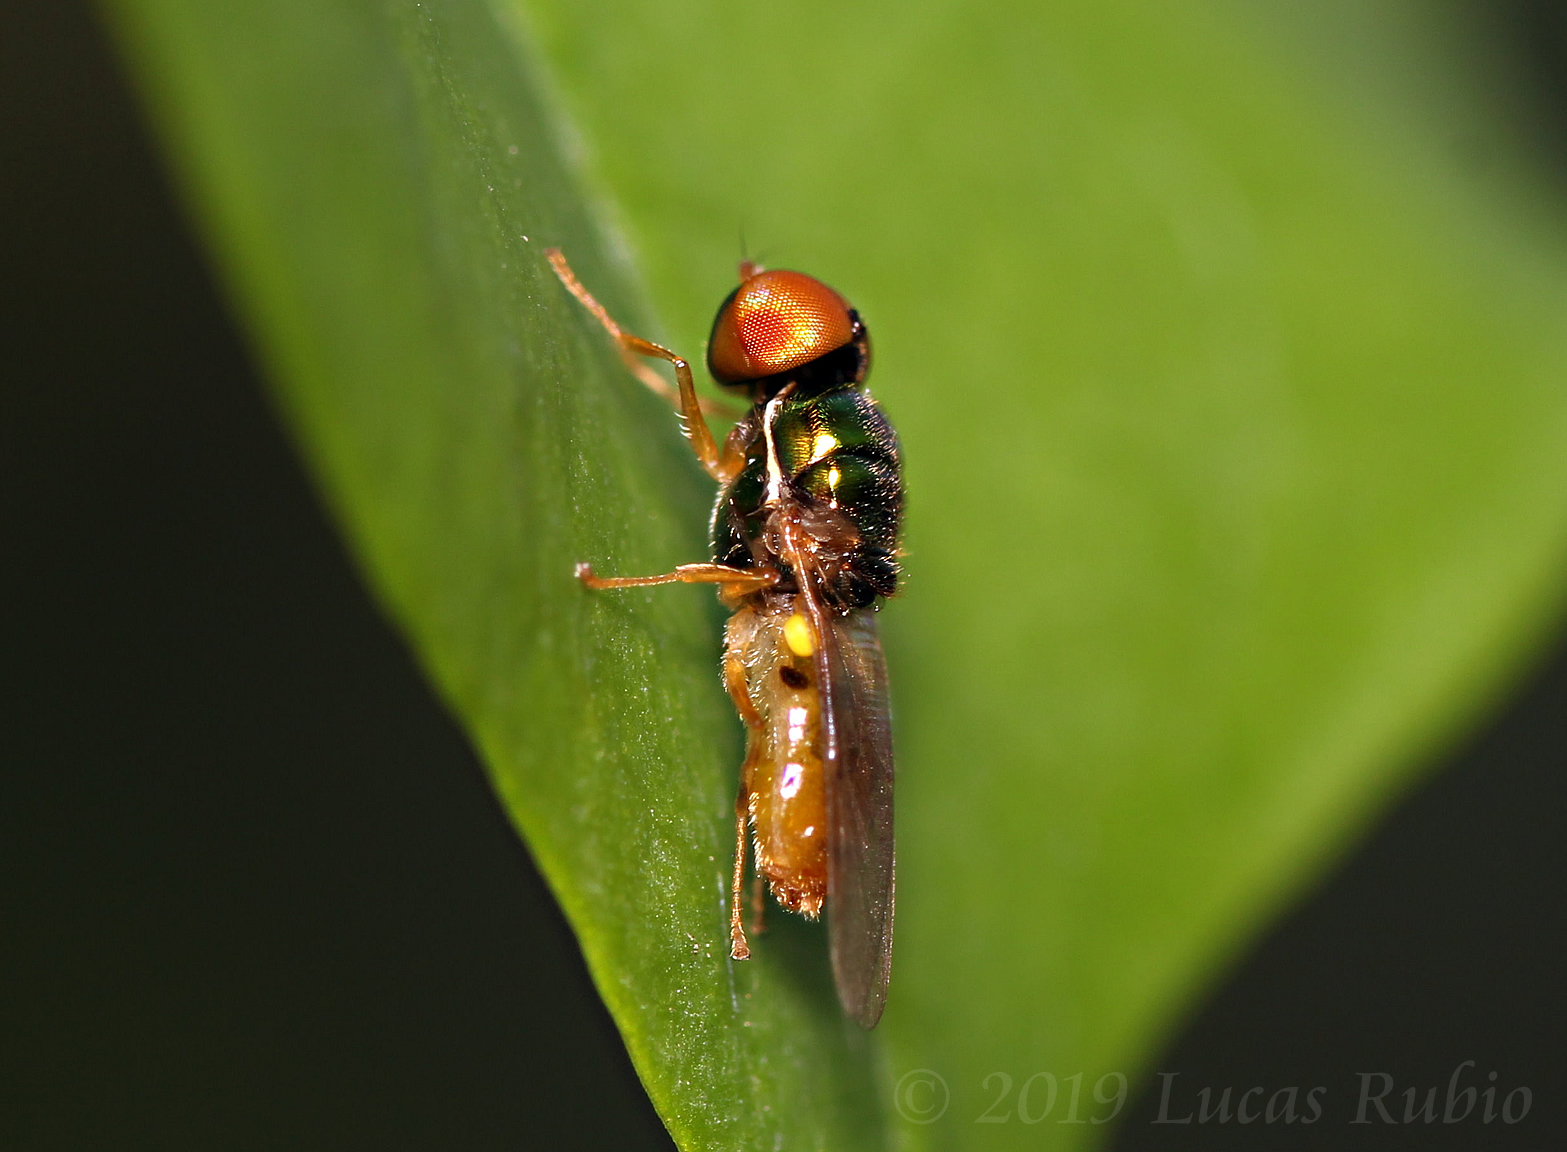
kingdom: Animalia
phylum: Arthropoda
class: Insecta
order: Diptera
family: Stratiomyidae
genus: Microchrysa
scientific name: Microchrysa bicolor
